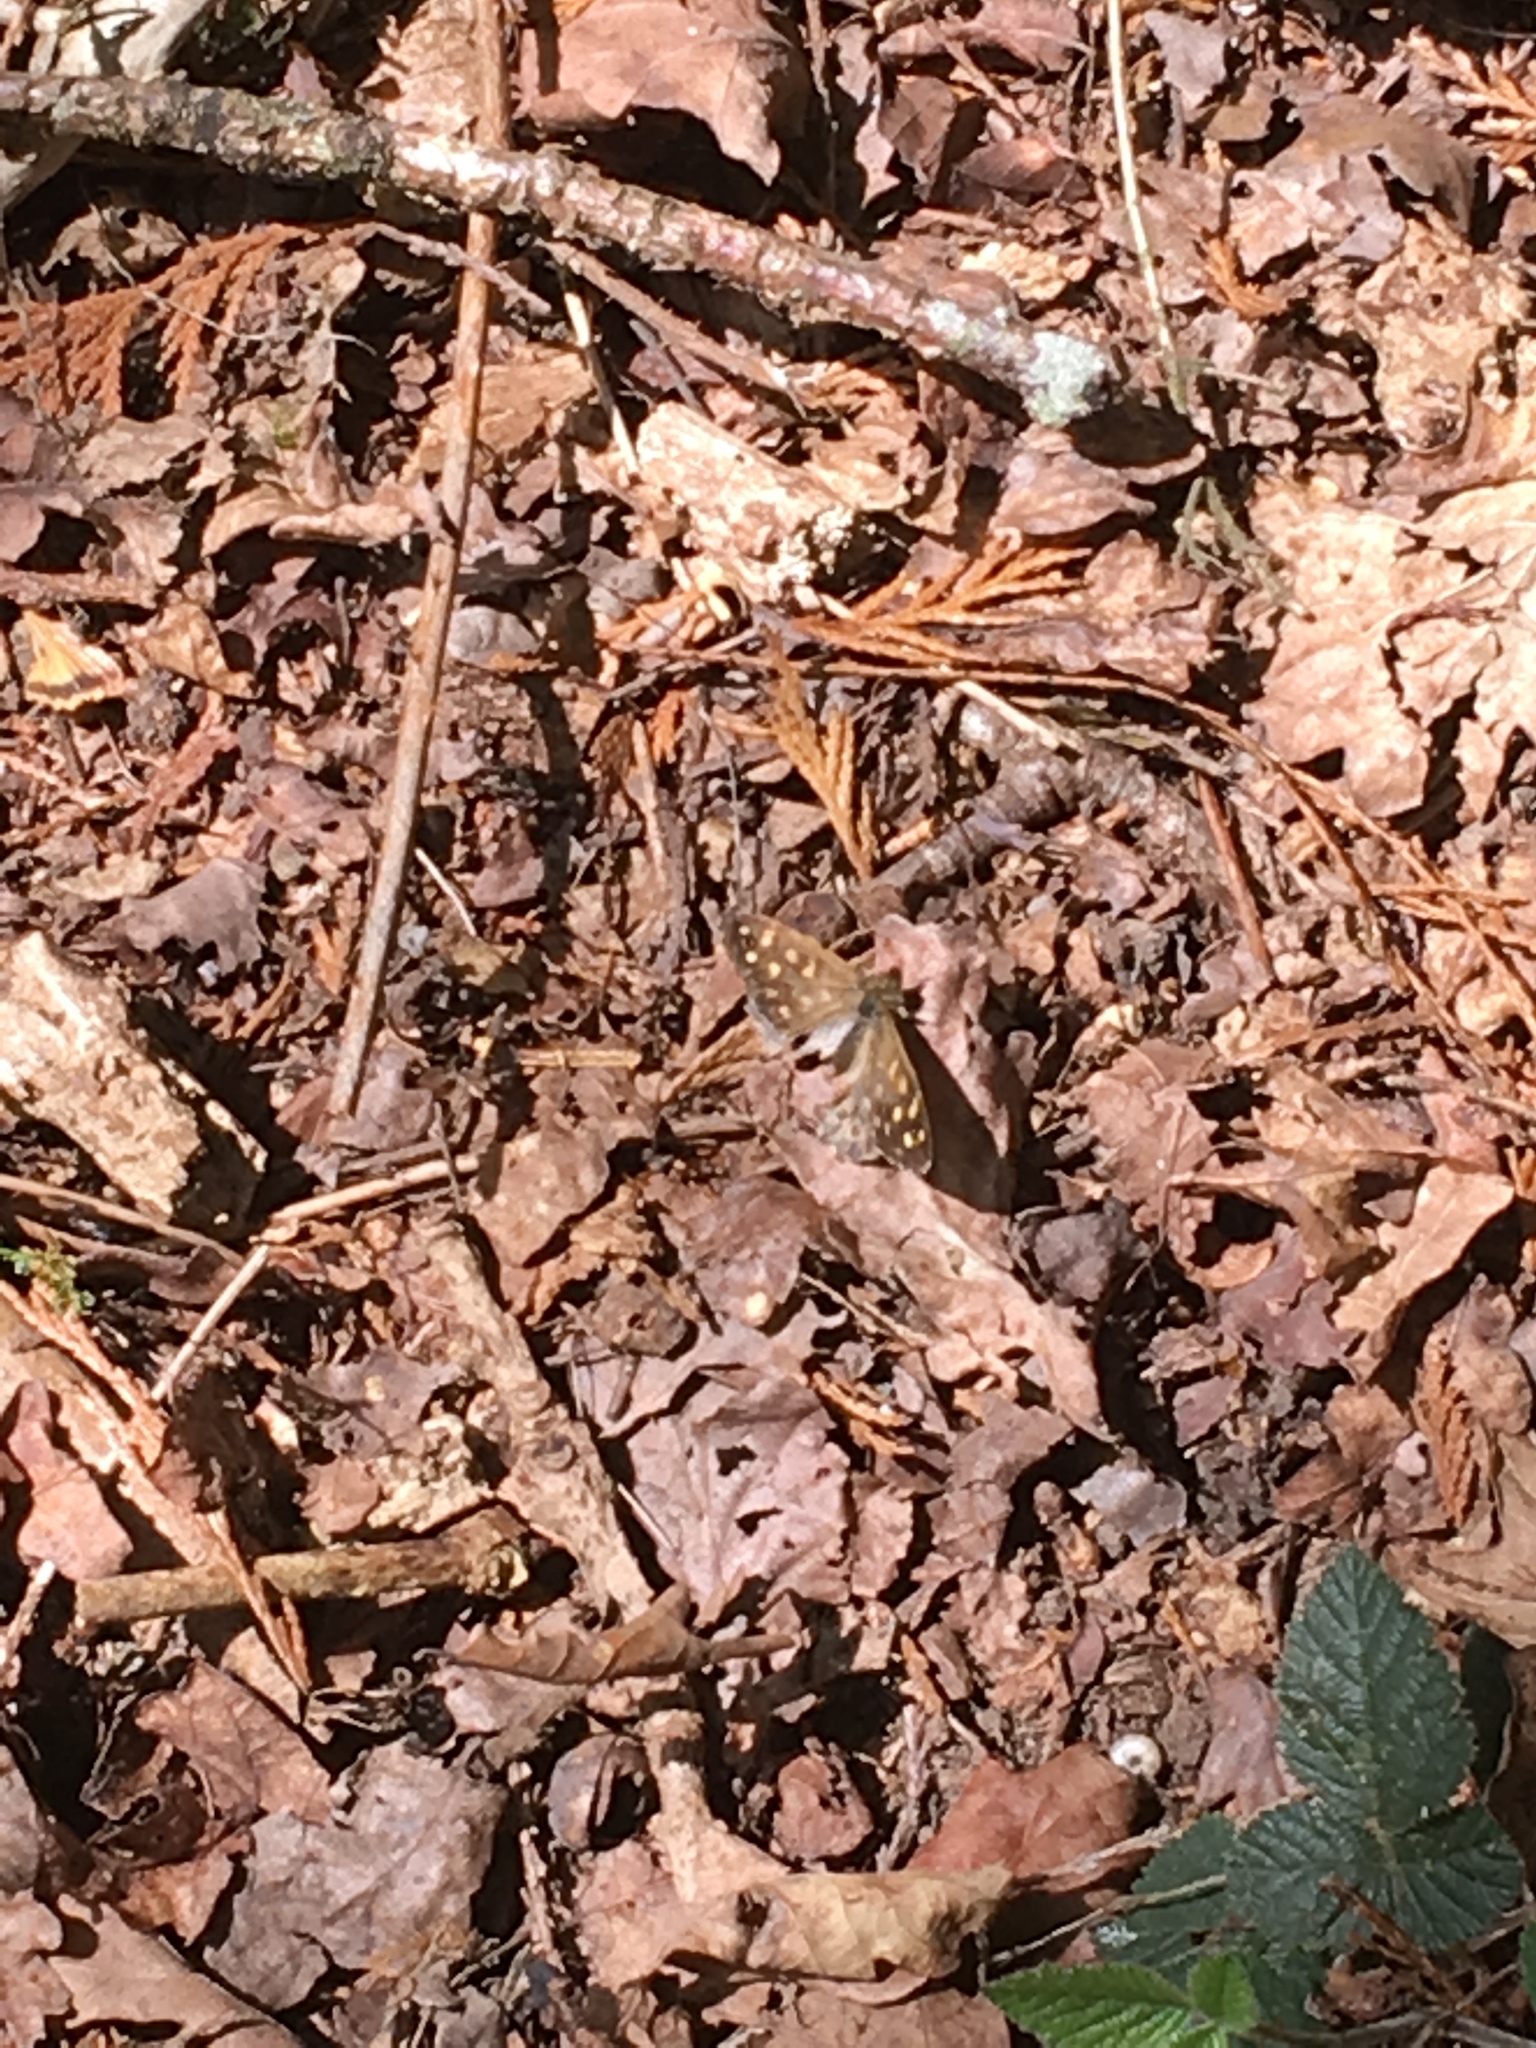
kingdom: Animalia
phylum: Arthropoda
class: Insecta
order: Lepidoptera
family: Nymphalidae
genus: Pararge
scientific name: Pararge aegeria
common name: Speckled wood
